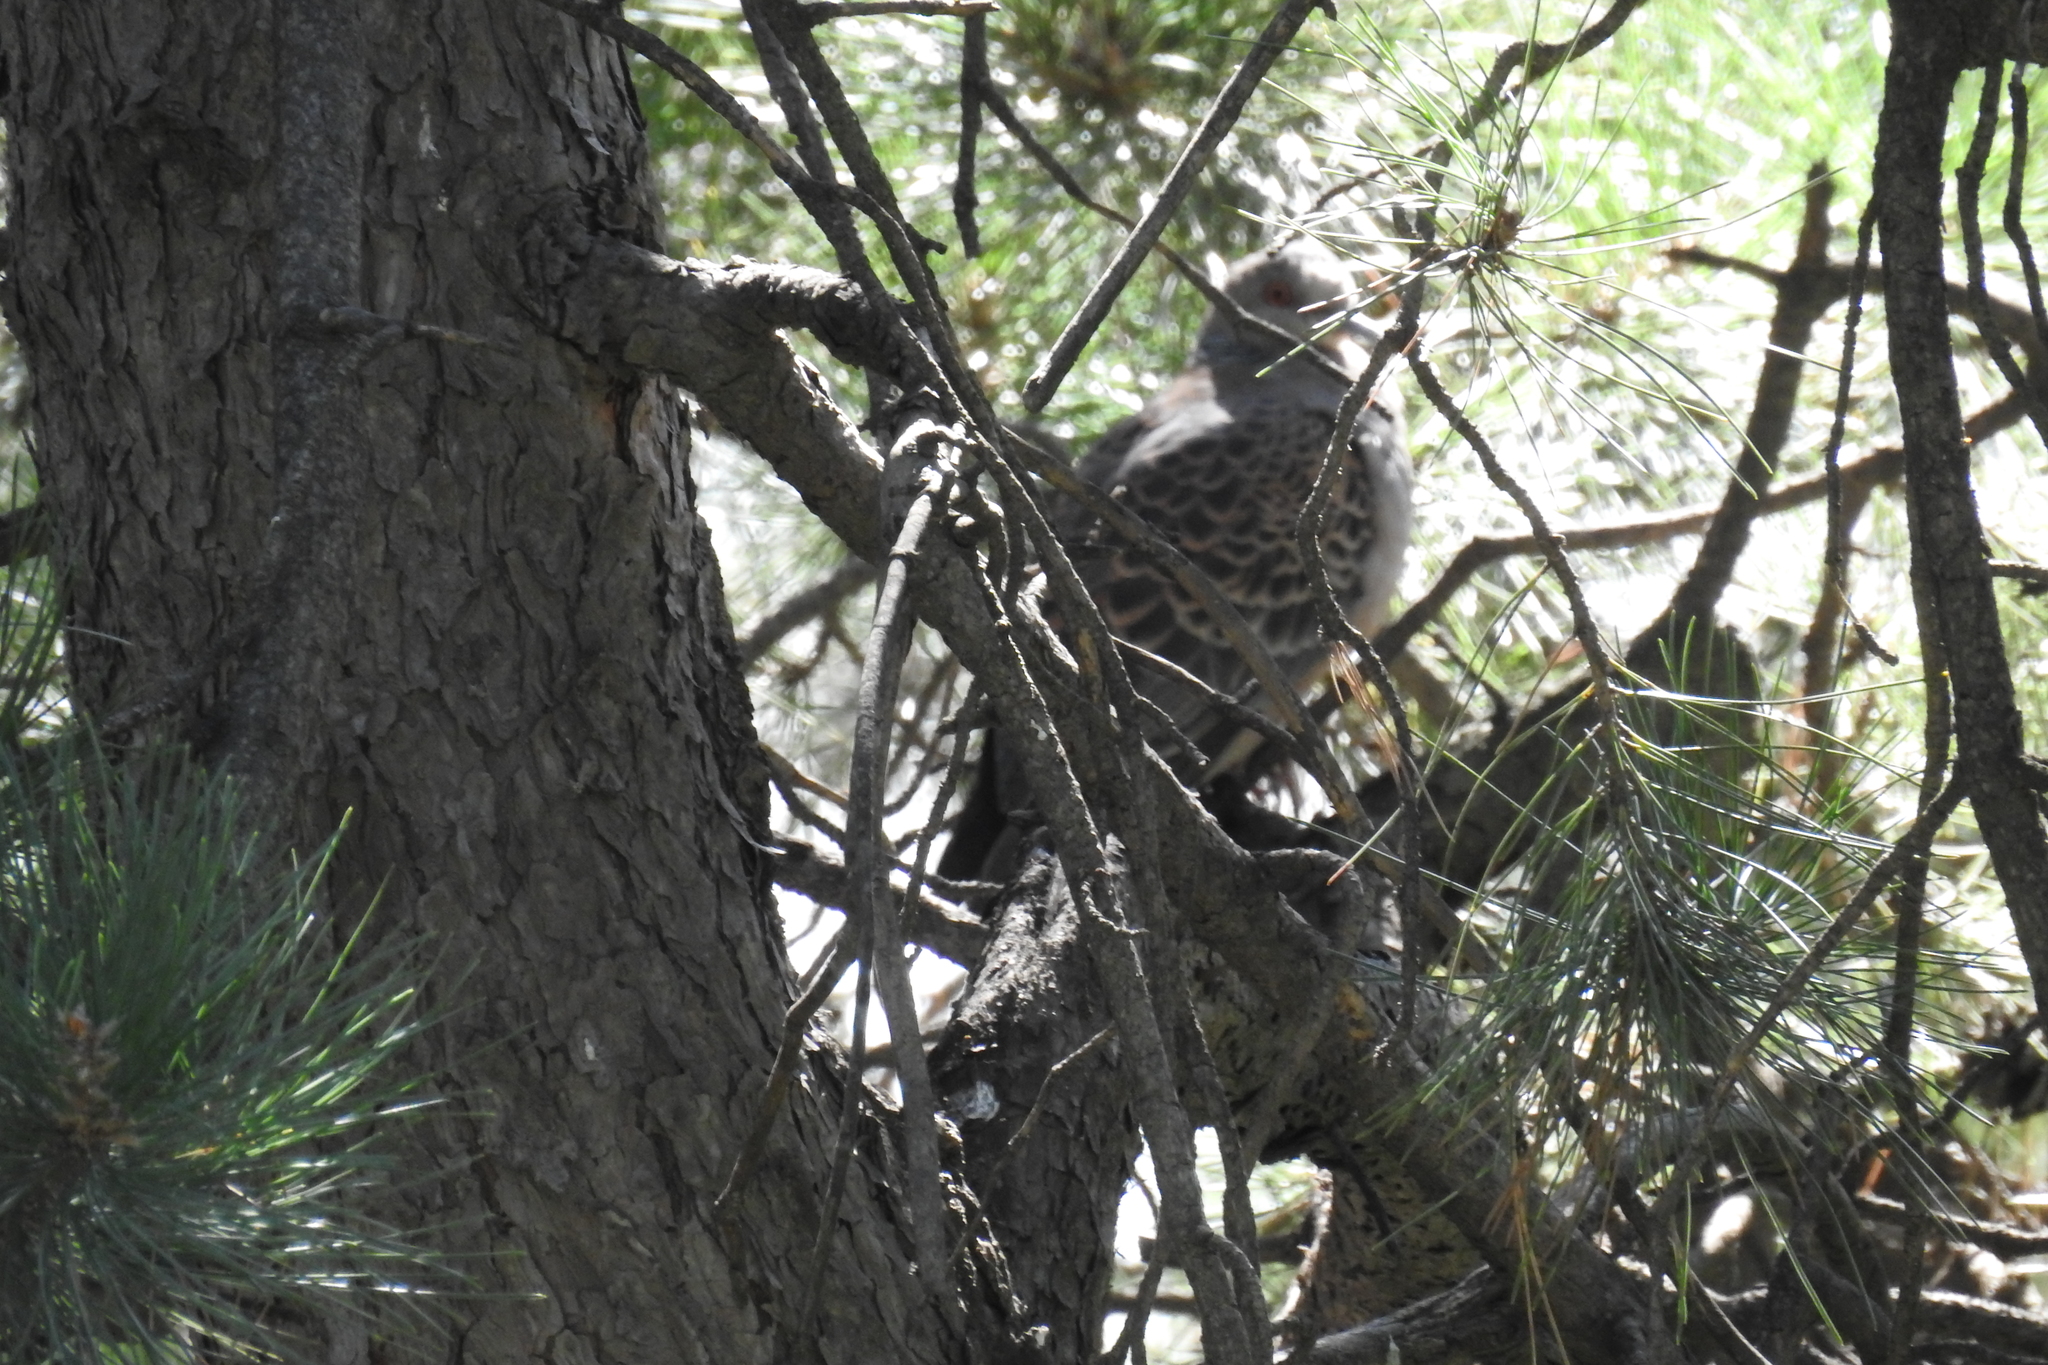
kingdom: Animalia
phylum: Chordata
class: Aves
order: Columbiformes
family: Columbidae
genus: Streptopelia
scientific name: Streptopelia orientalis
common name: Oriental turtle dove
